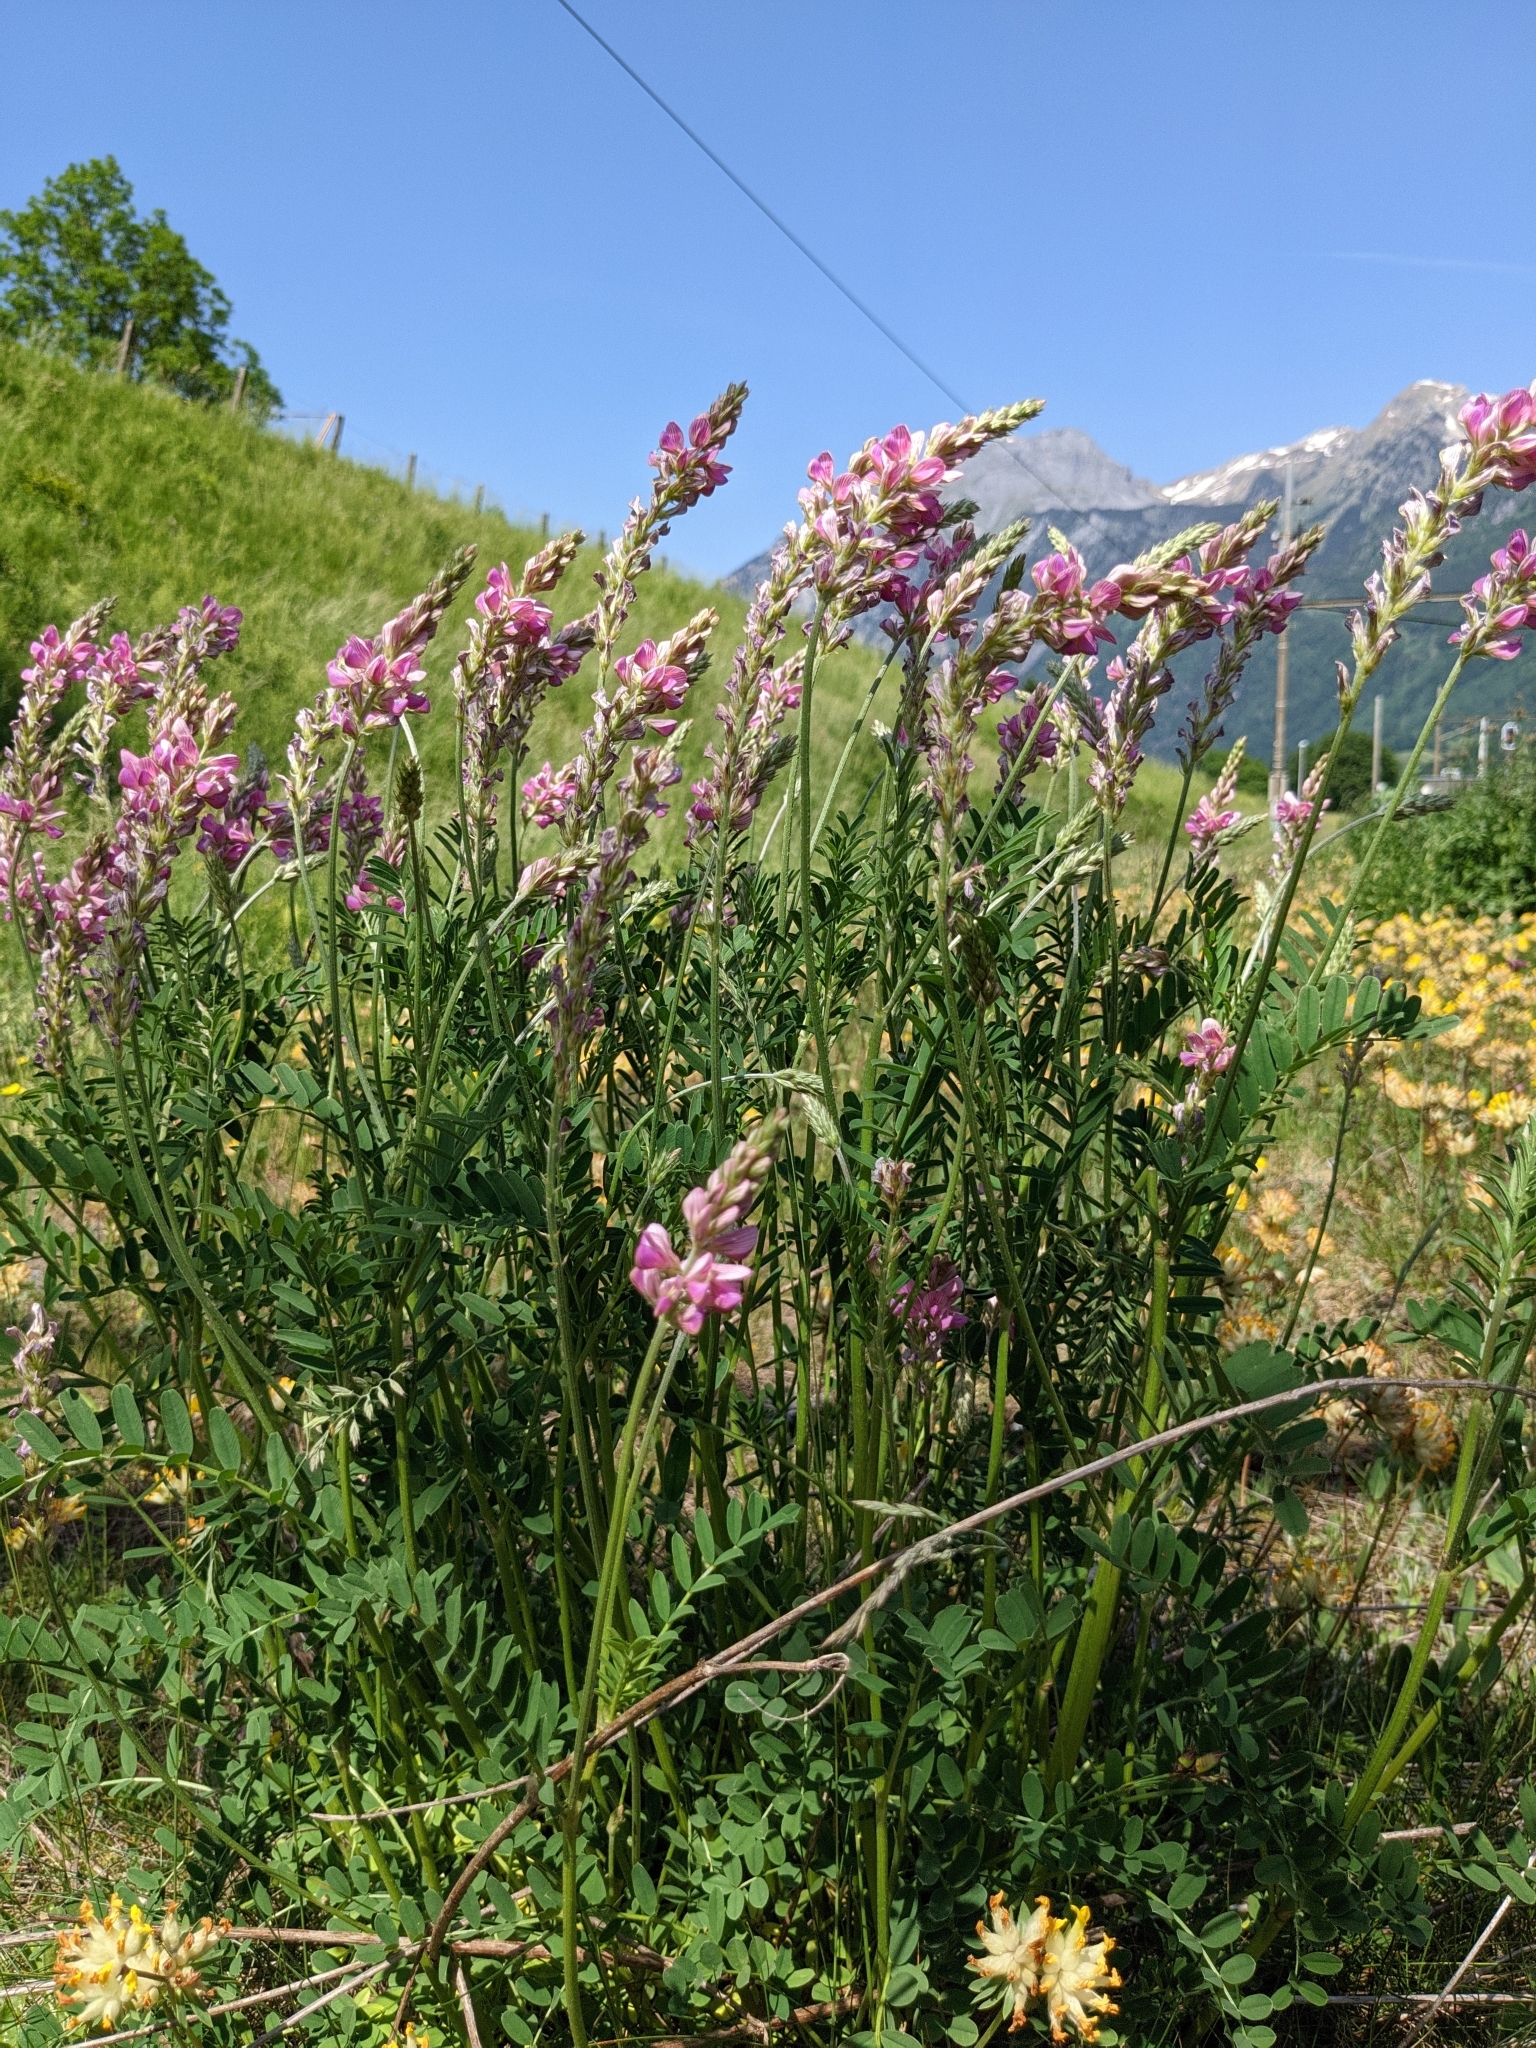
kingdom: Plantae
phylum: Tracheophyta
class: Magnoliopsida
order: Fabales
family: Fabaceae
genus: Onobrychis
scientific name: Onobrychis viciifolia
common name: Sainfoin
